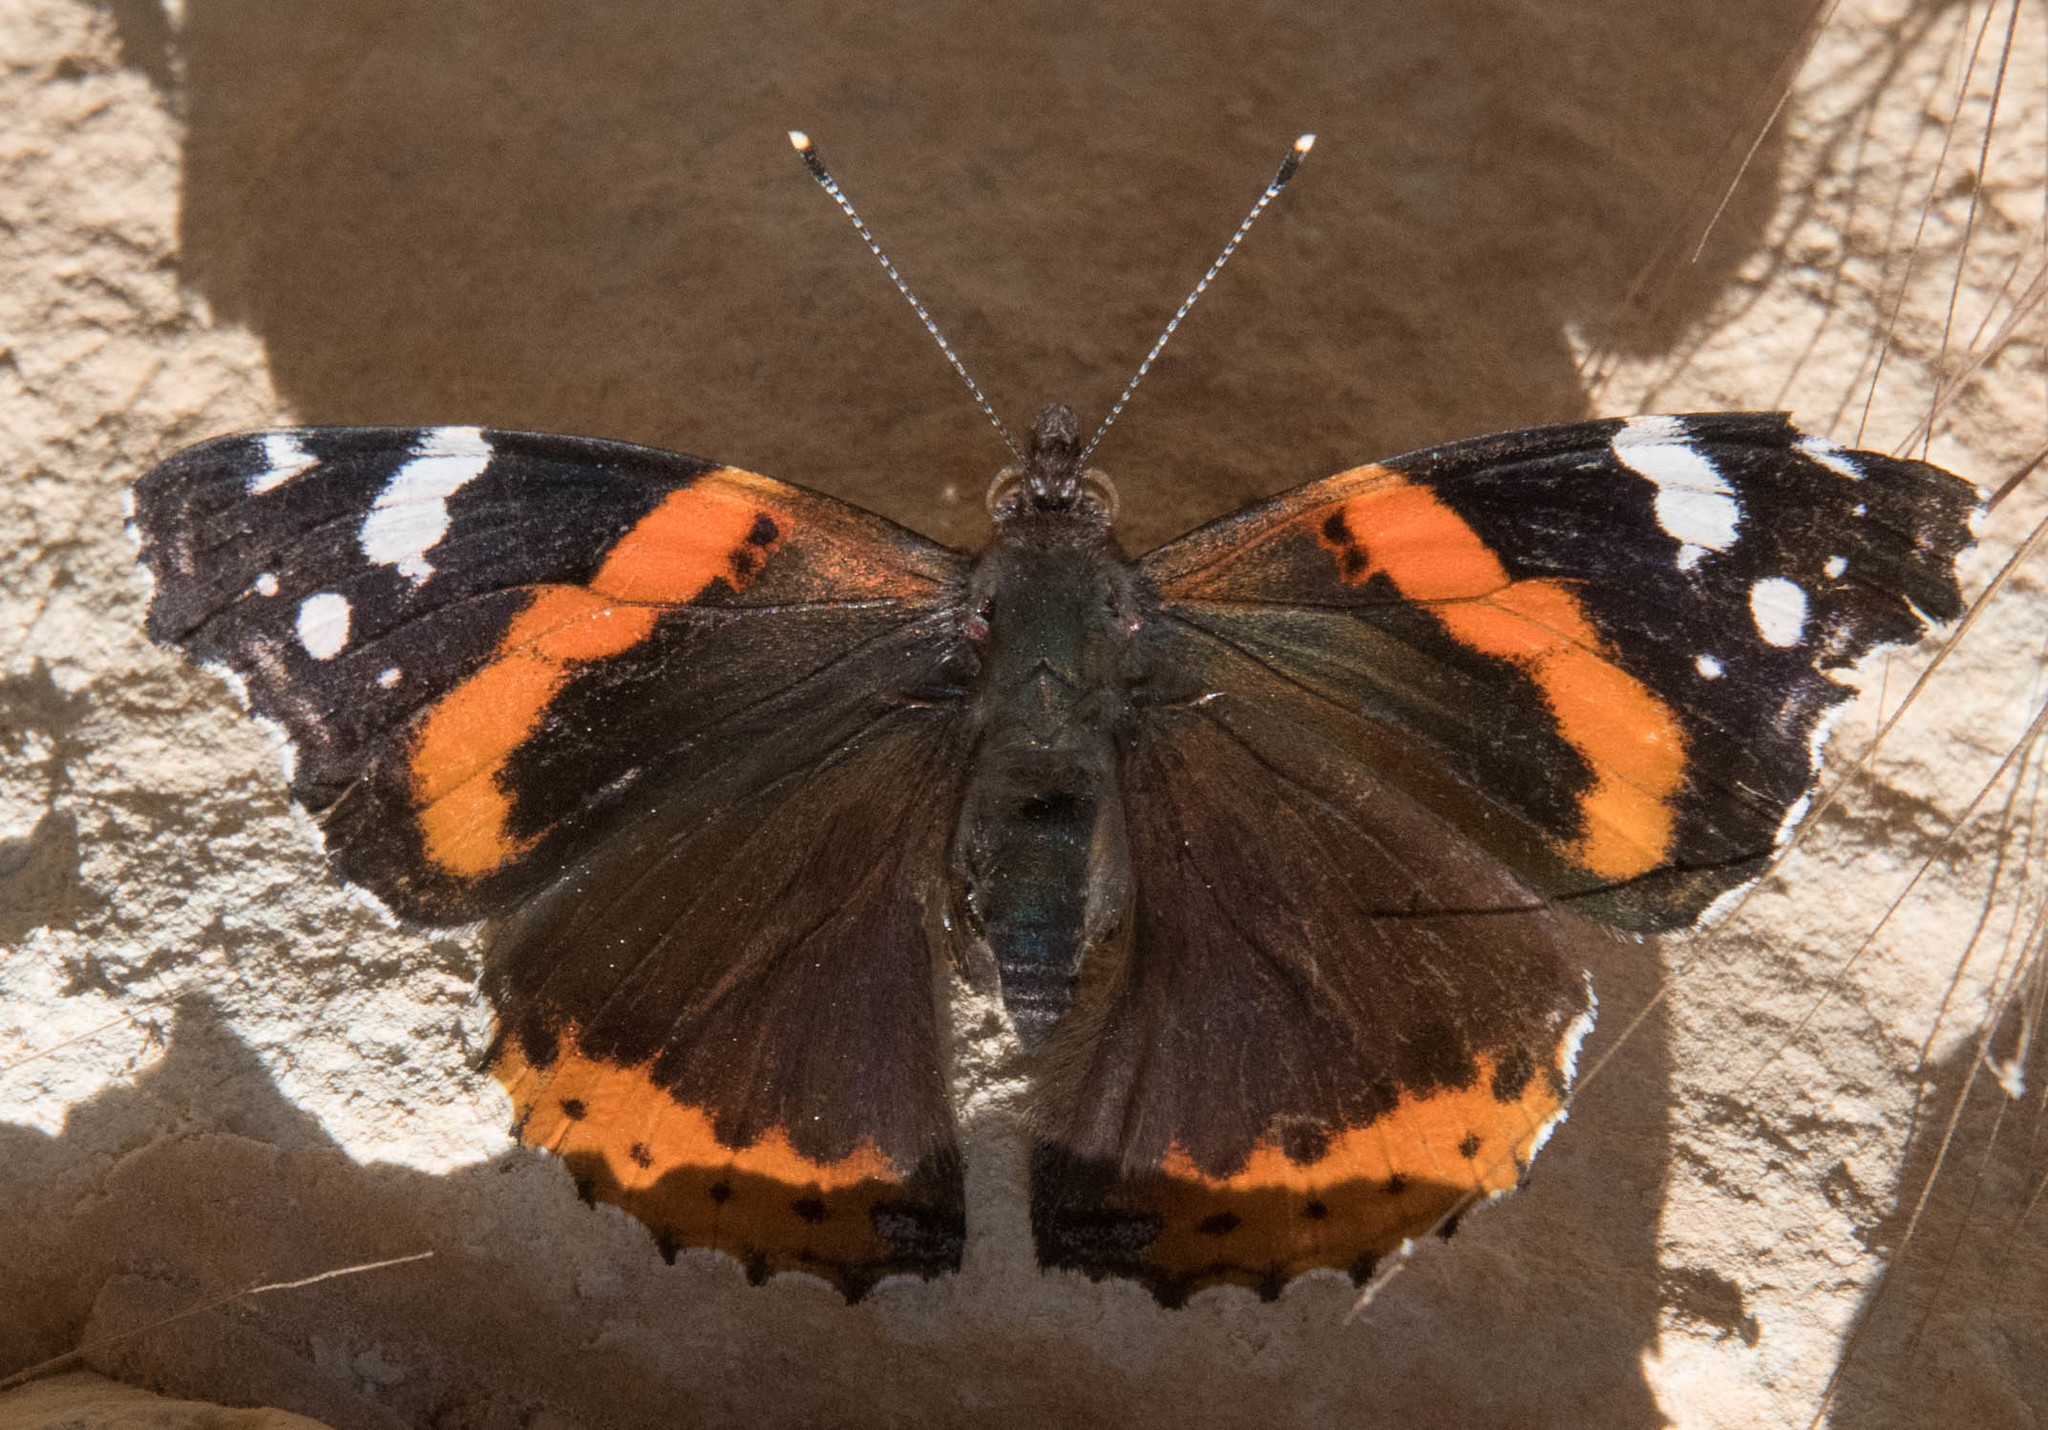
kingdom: Animalia
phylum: Arthropoda
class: Insecta
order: Lepidoptera
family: Nymphalidae
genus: Vanessa
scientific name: Vanessa atalanta
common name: Red admiral
